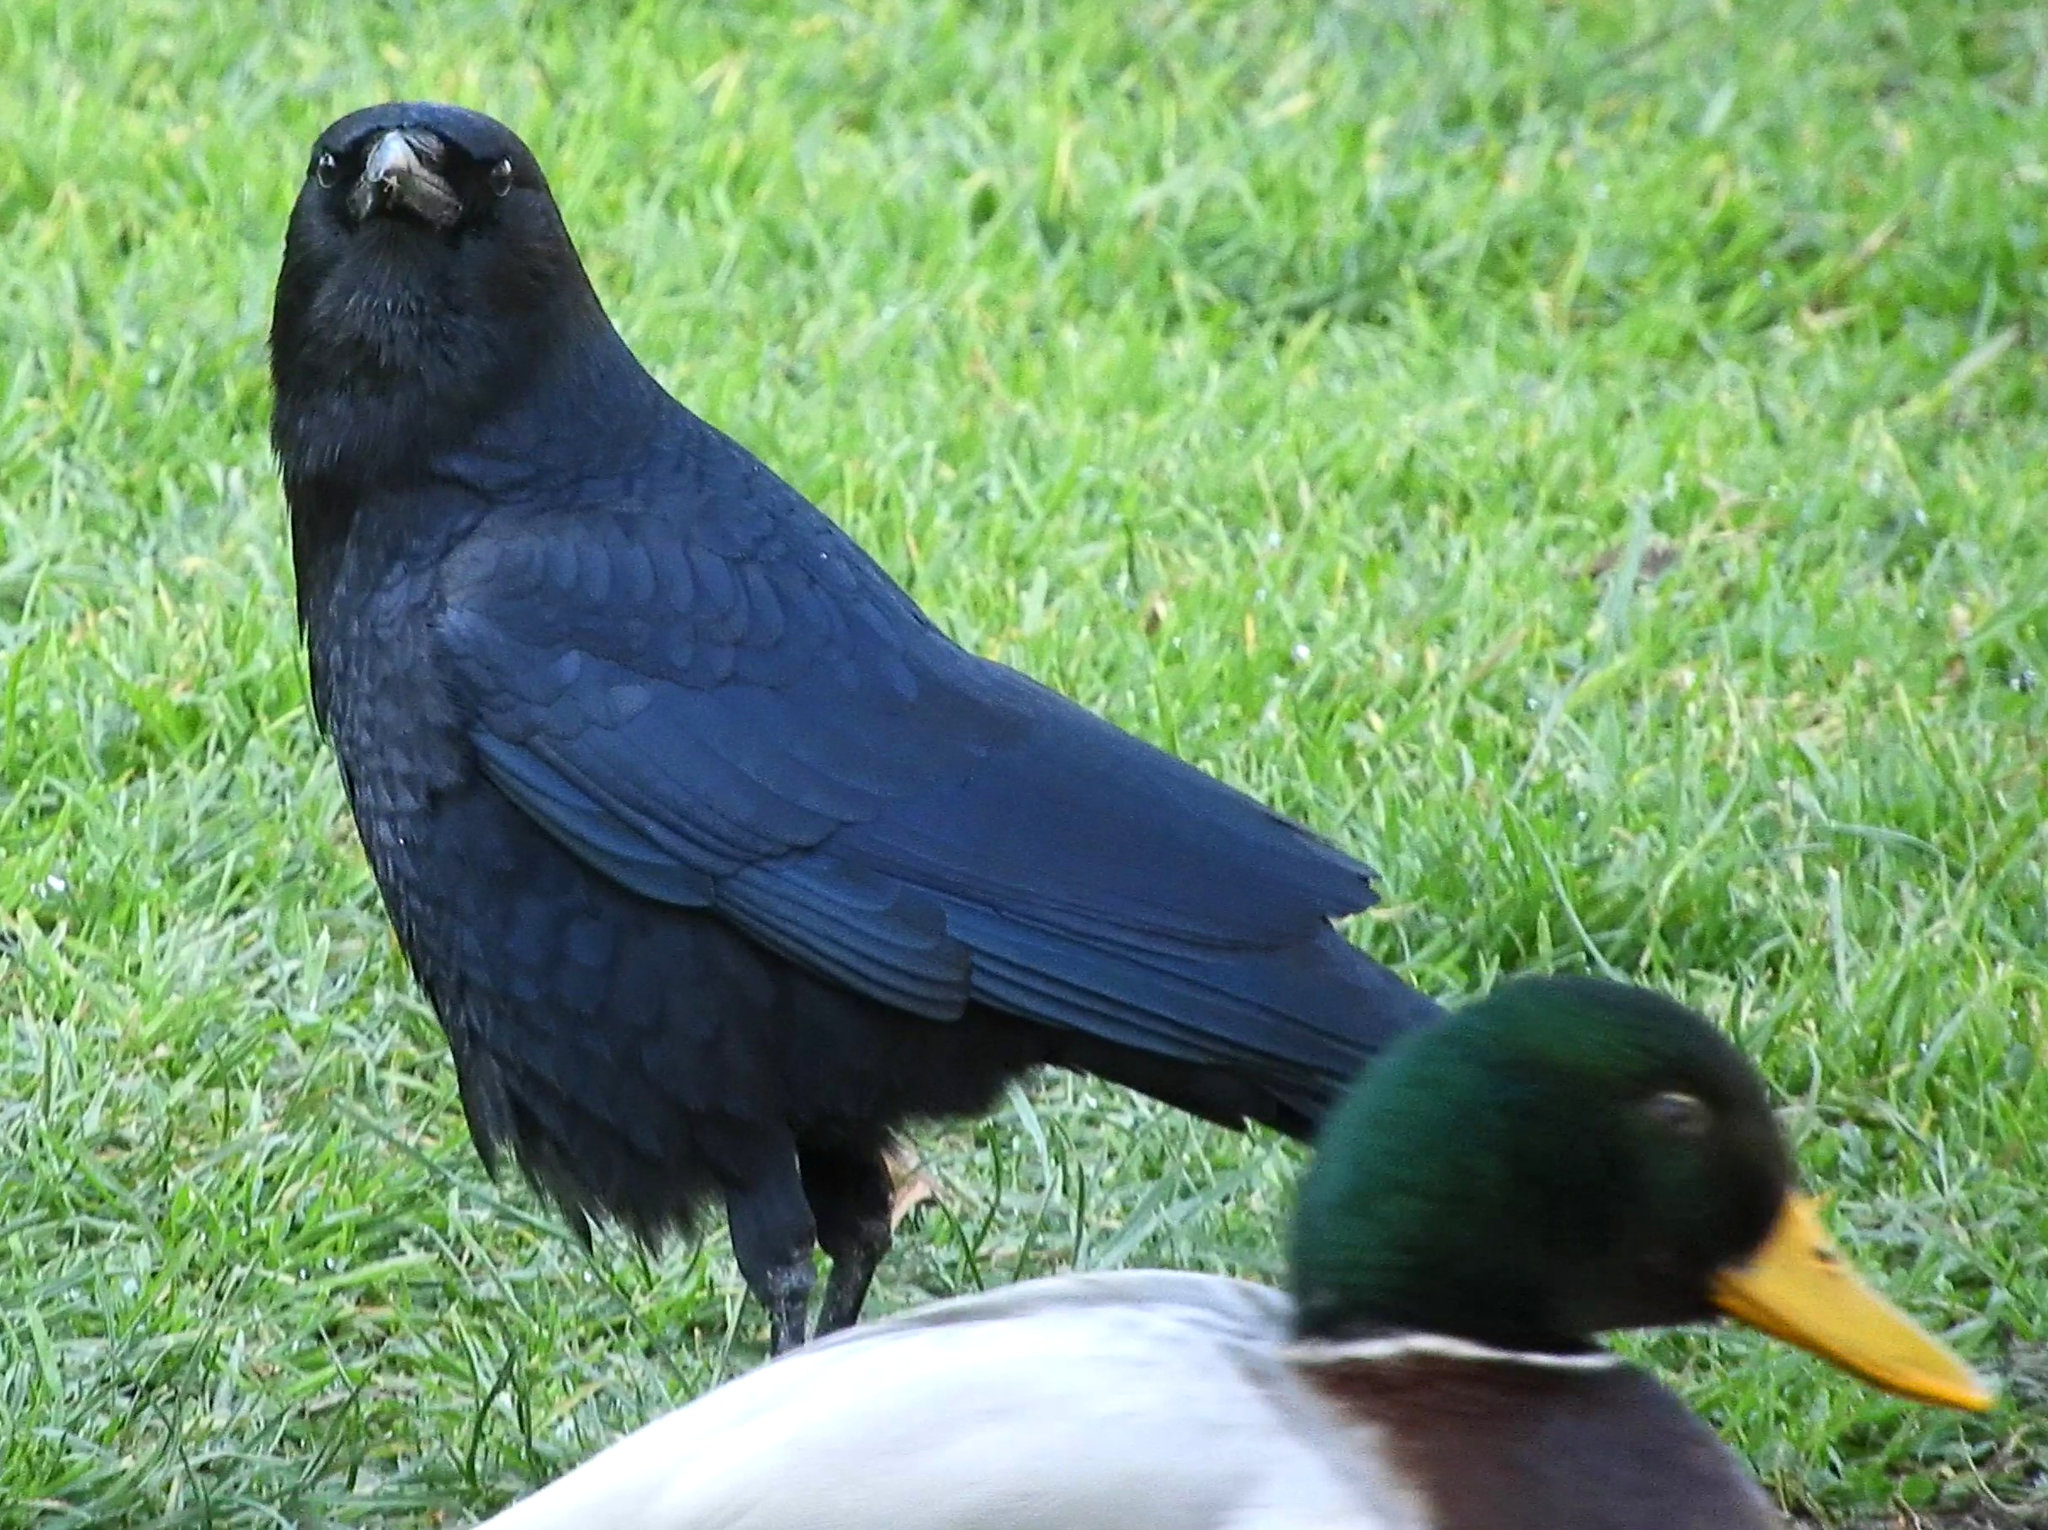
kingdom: Animalia
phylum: Chordata
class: Aves
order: Passeriformes
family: Corvidae
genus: Corvus
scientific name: Corvus brachyrhynchos
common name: American crow
